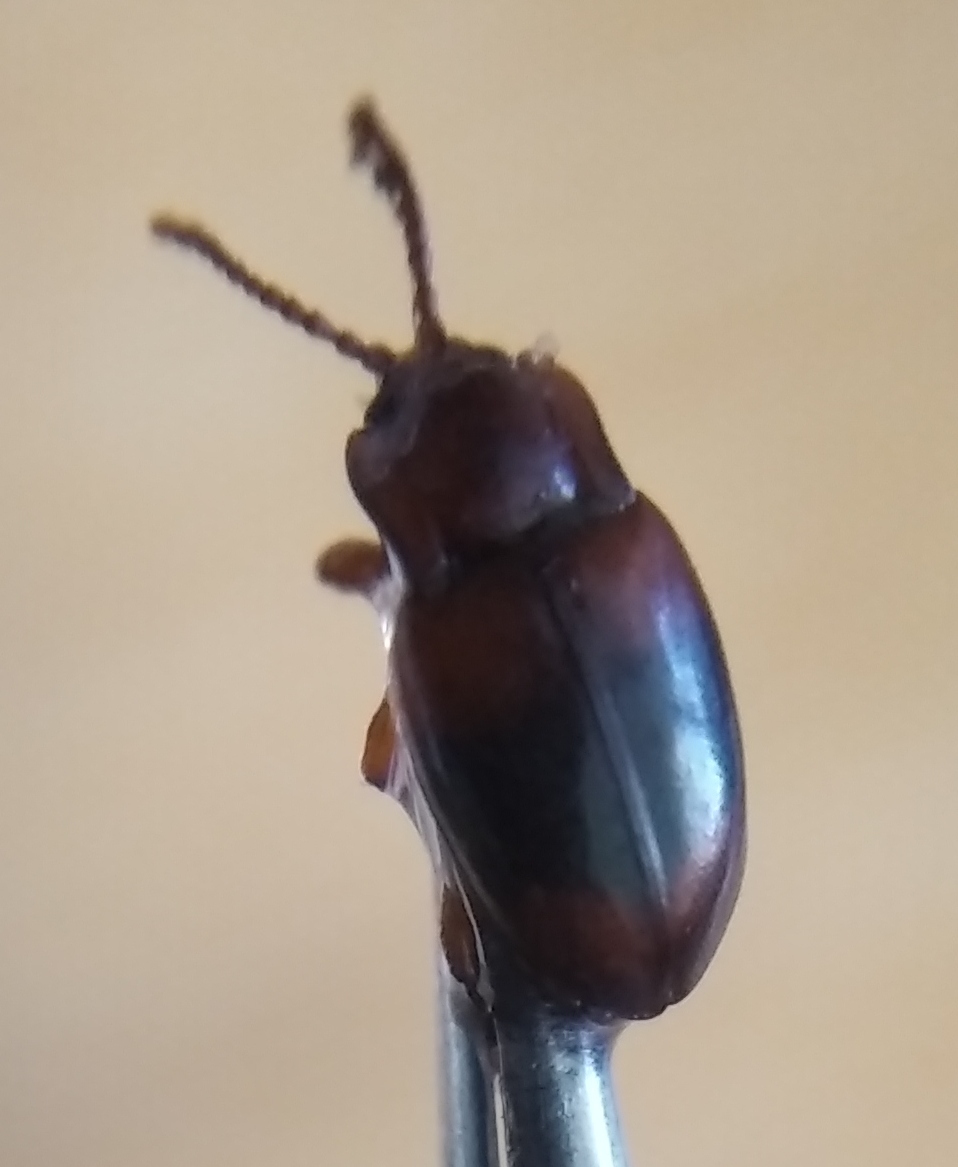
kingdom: Animalia
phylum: Arthropoda
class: Insecta
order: Coleoptera
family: Endomychidae
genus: Lycoperdina
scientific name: Lycoperdina succincta
